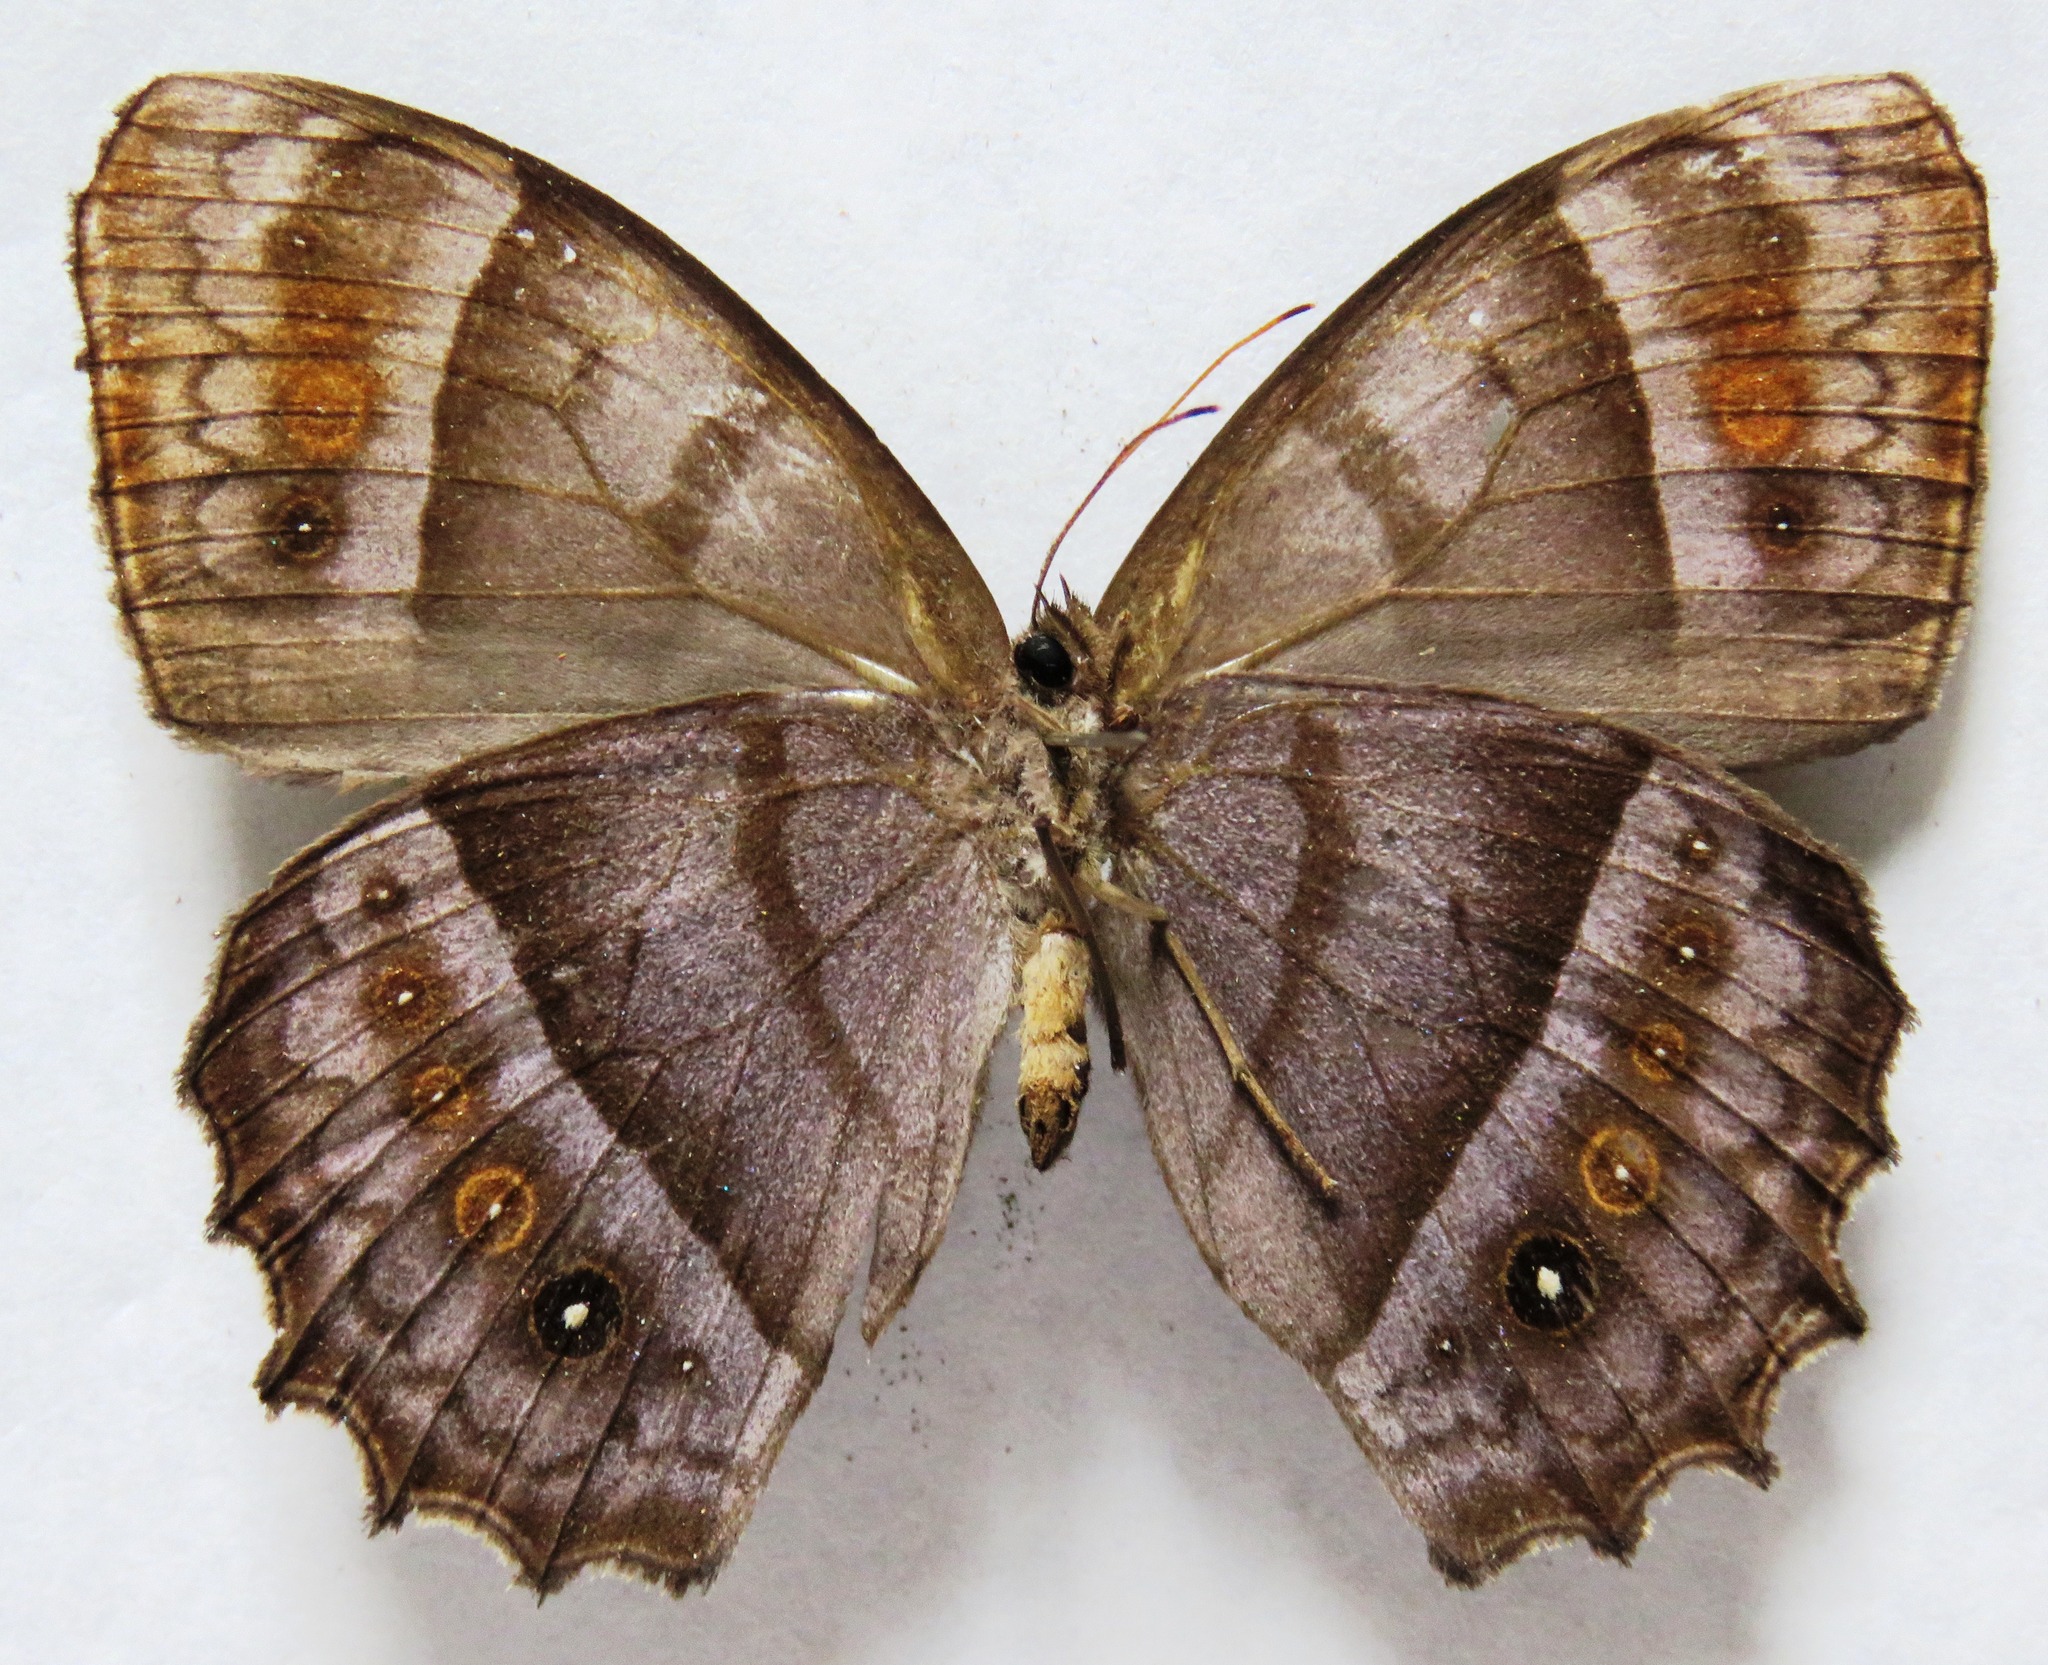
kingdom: Animalia
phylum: Arthropoda
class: Insecta
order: Lepidoptera
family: Nymphalidae
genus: Taygetis
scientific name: Taygetis andromeda
